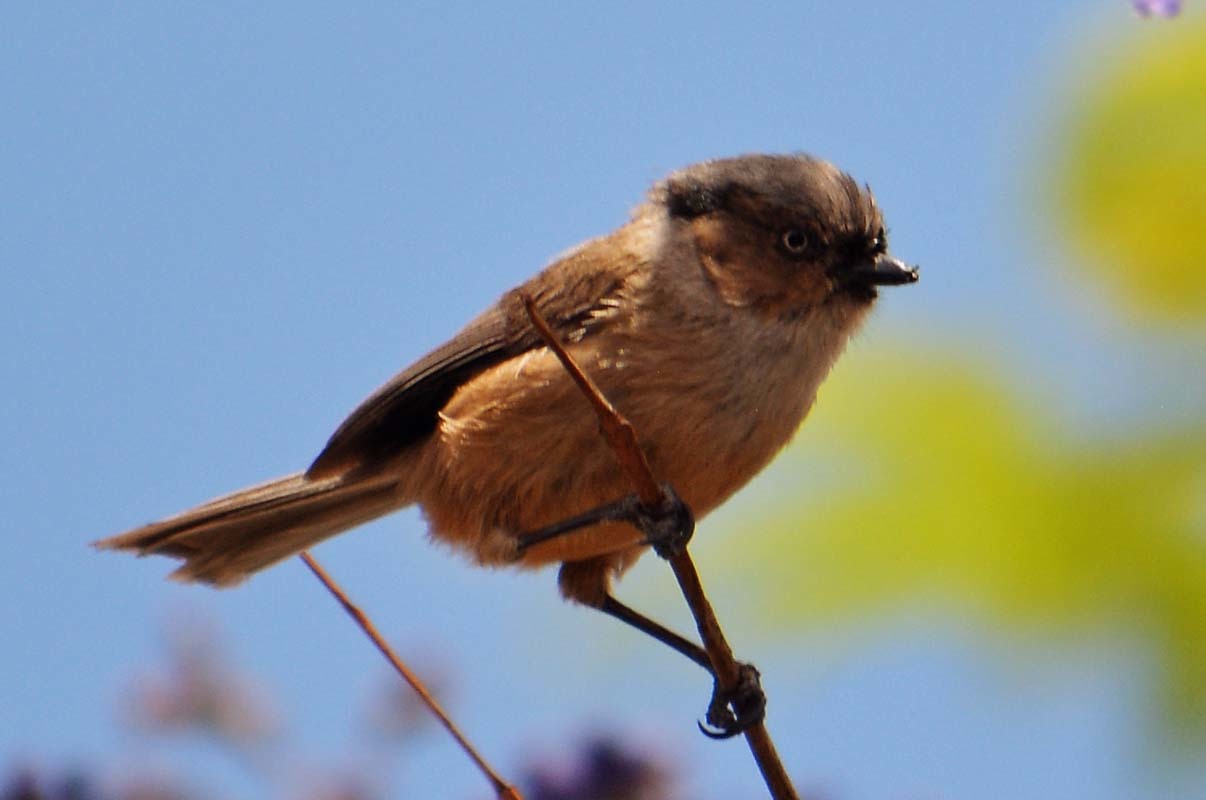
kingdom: Animalia
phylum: Chordata
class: Aves
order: Passeriformes
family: Aegithalidae
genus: Psaltriparus
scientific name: Psaltriparus minimus
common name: American bushtit
